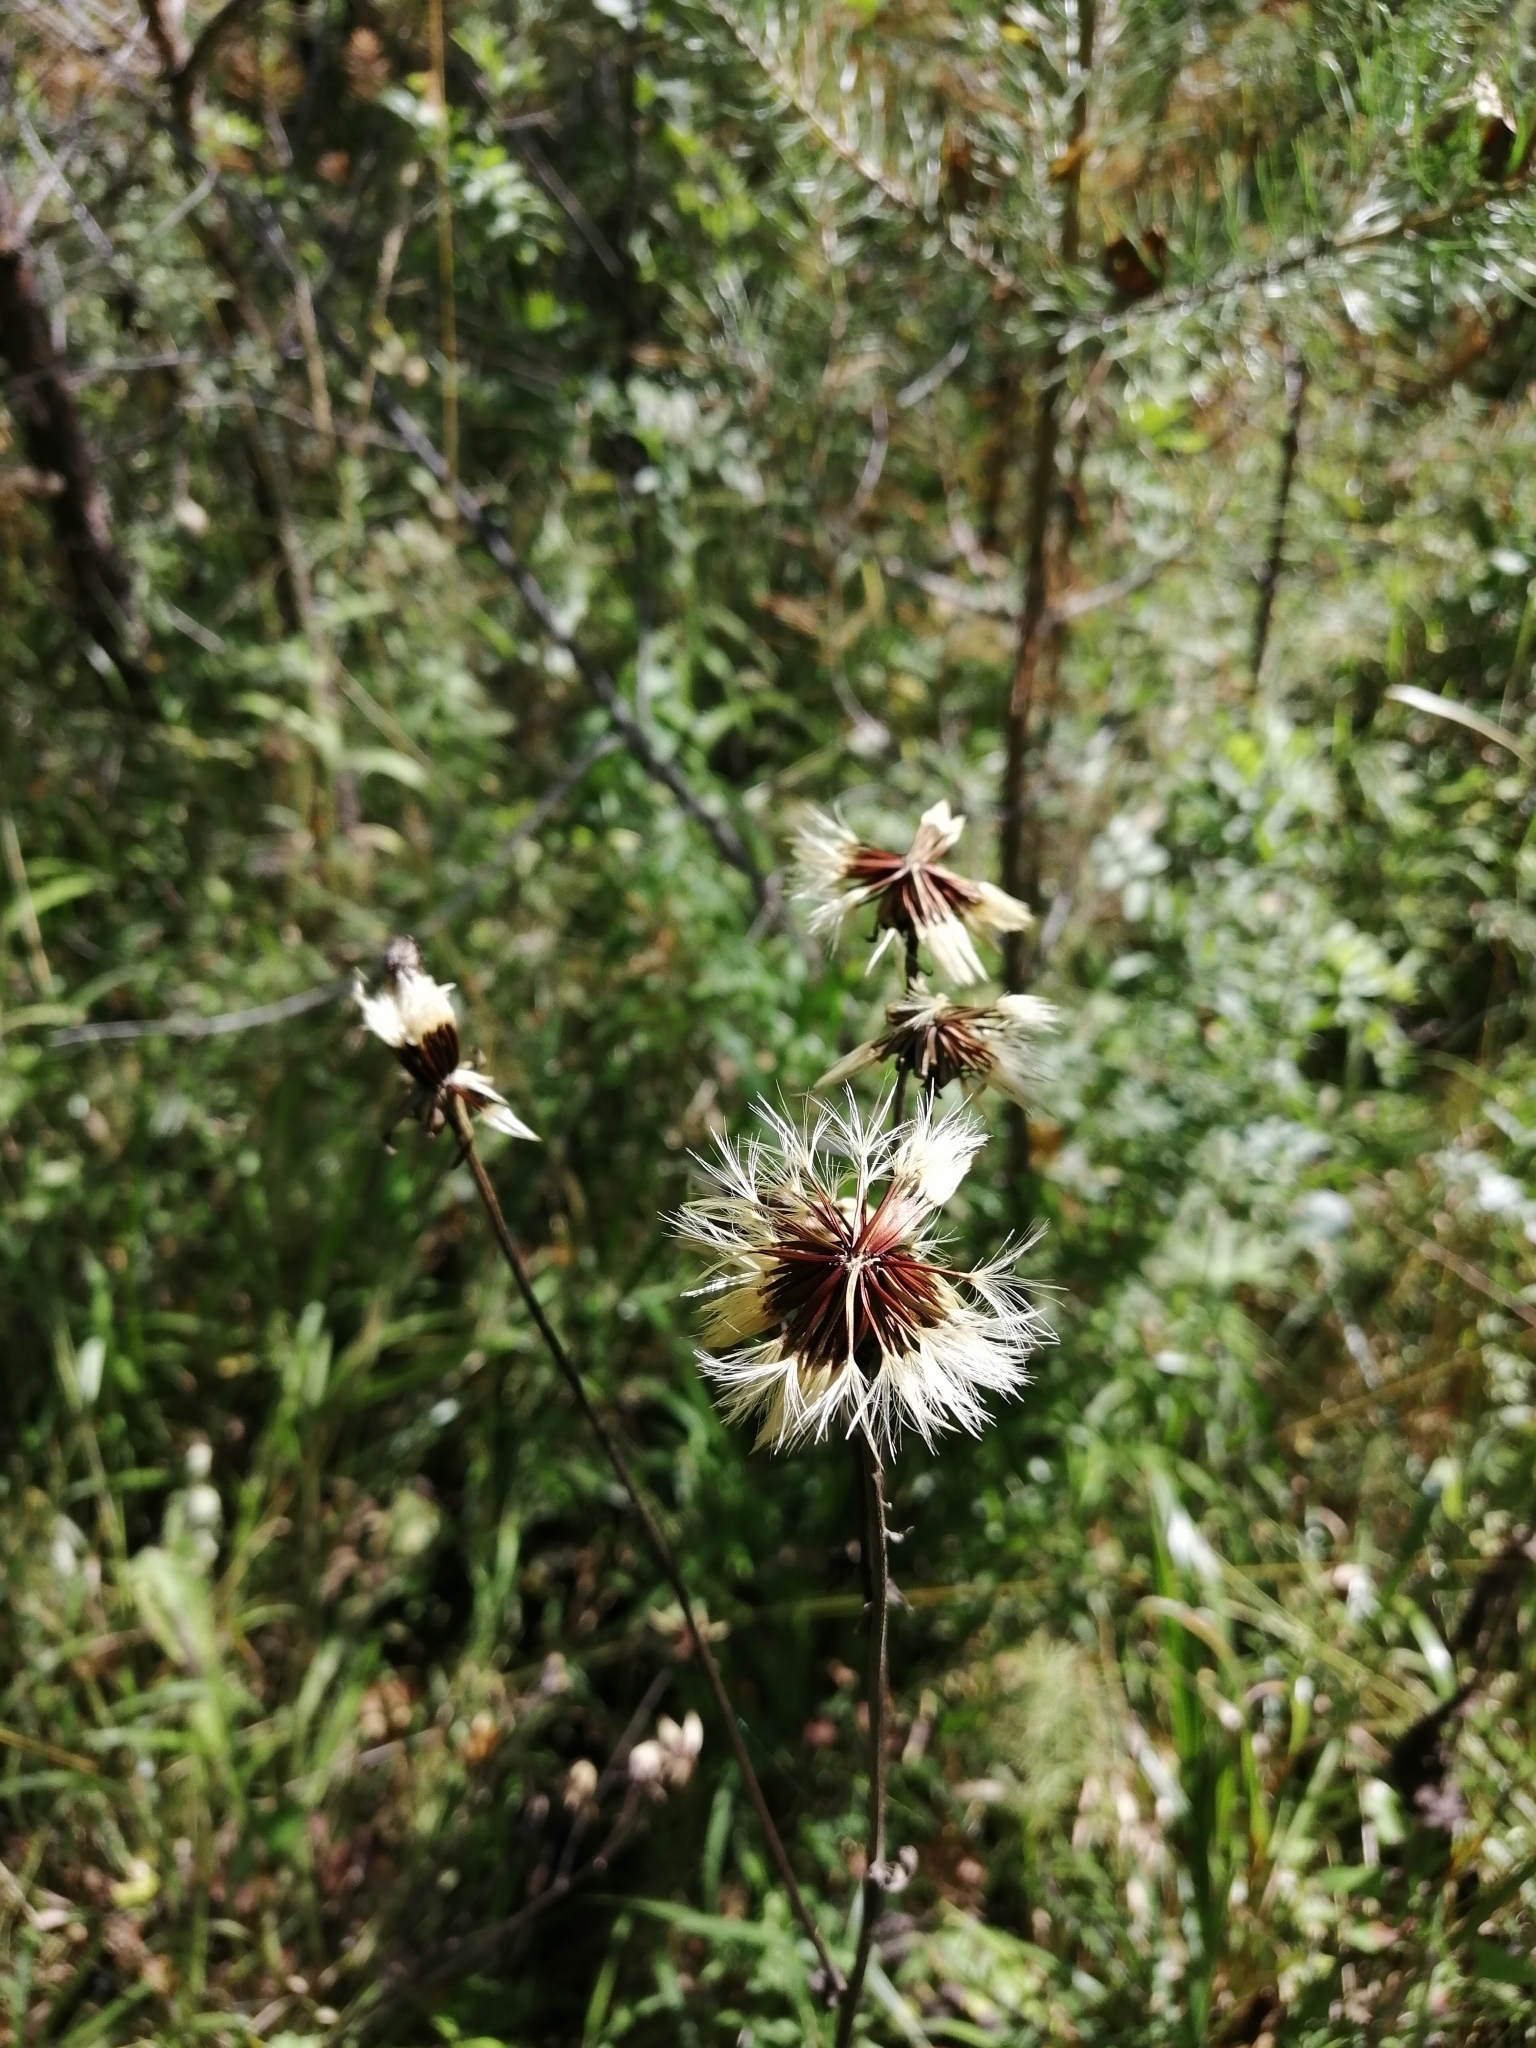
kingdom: Plantae
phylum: Tracheophyta
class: Magnoliopsida
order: Asterales
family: Asteraceae
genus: Crepis
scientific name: Crepis sibirica
